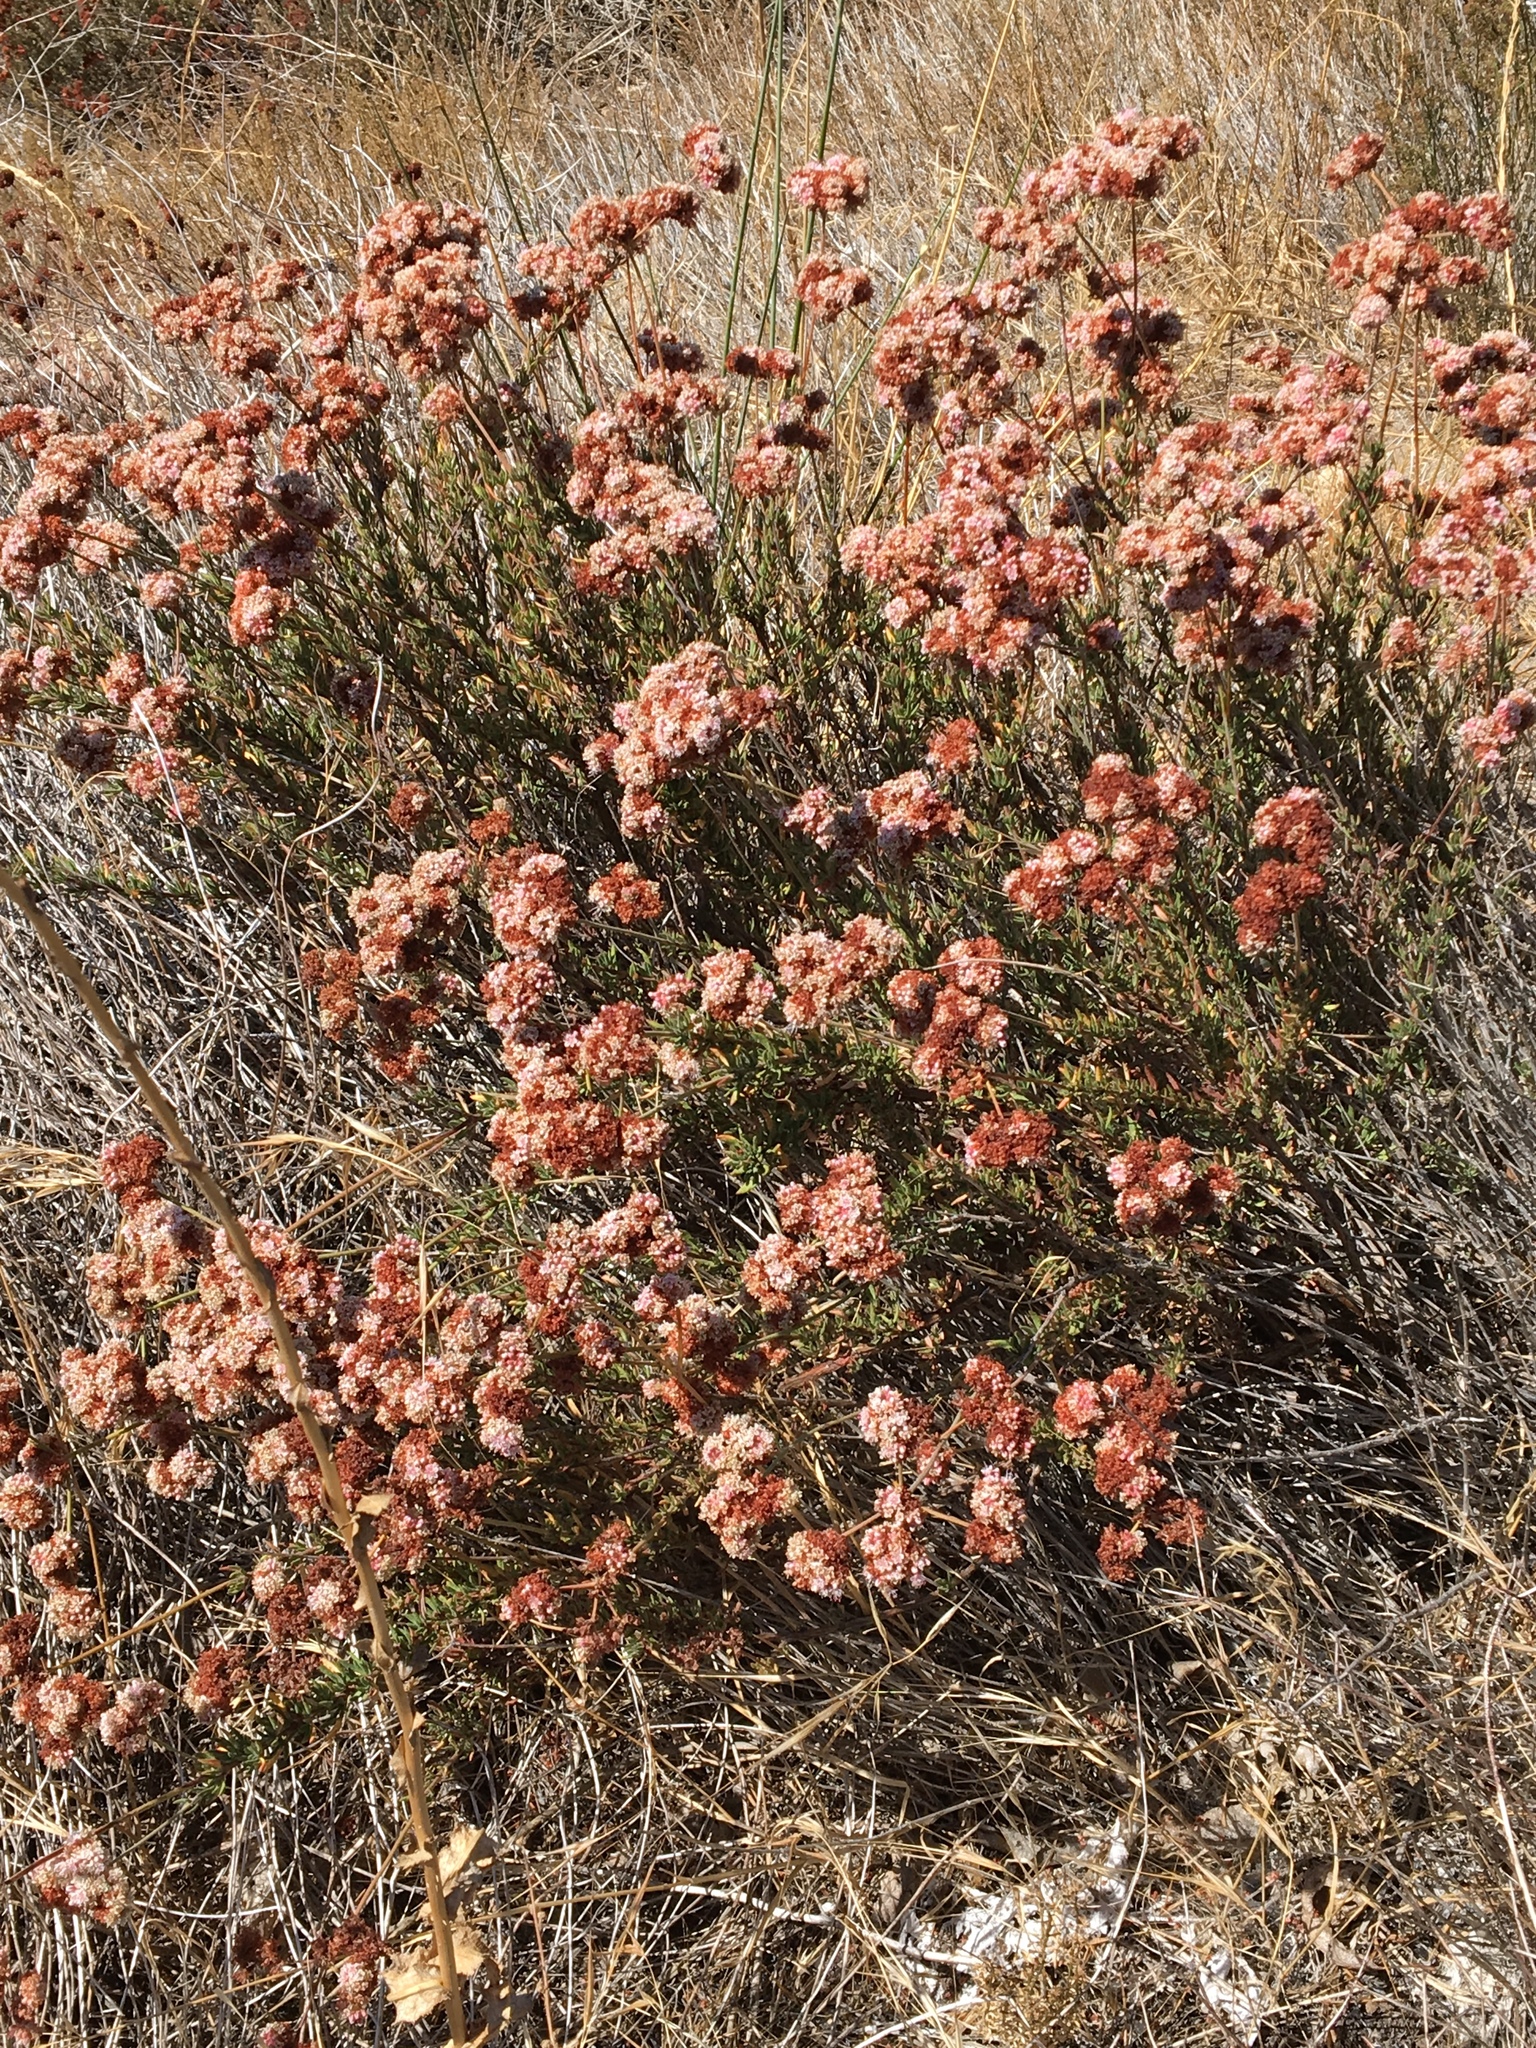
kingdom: Plantae
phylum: Tracheophyta
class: Magnoliopsida
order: Caryophyllales
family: Polygonaceae
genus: Eriogonum
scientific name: Eriogonum fasciculatum
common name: California wild buckwheat
